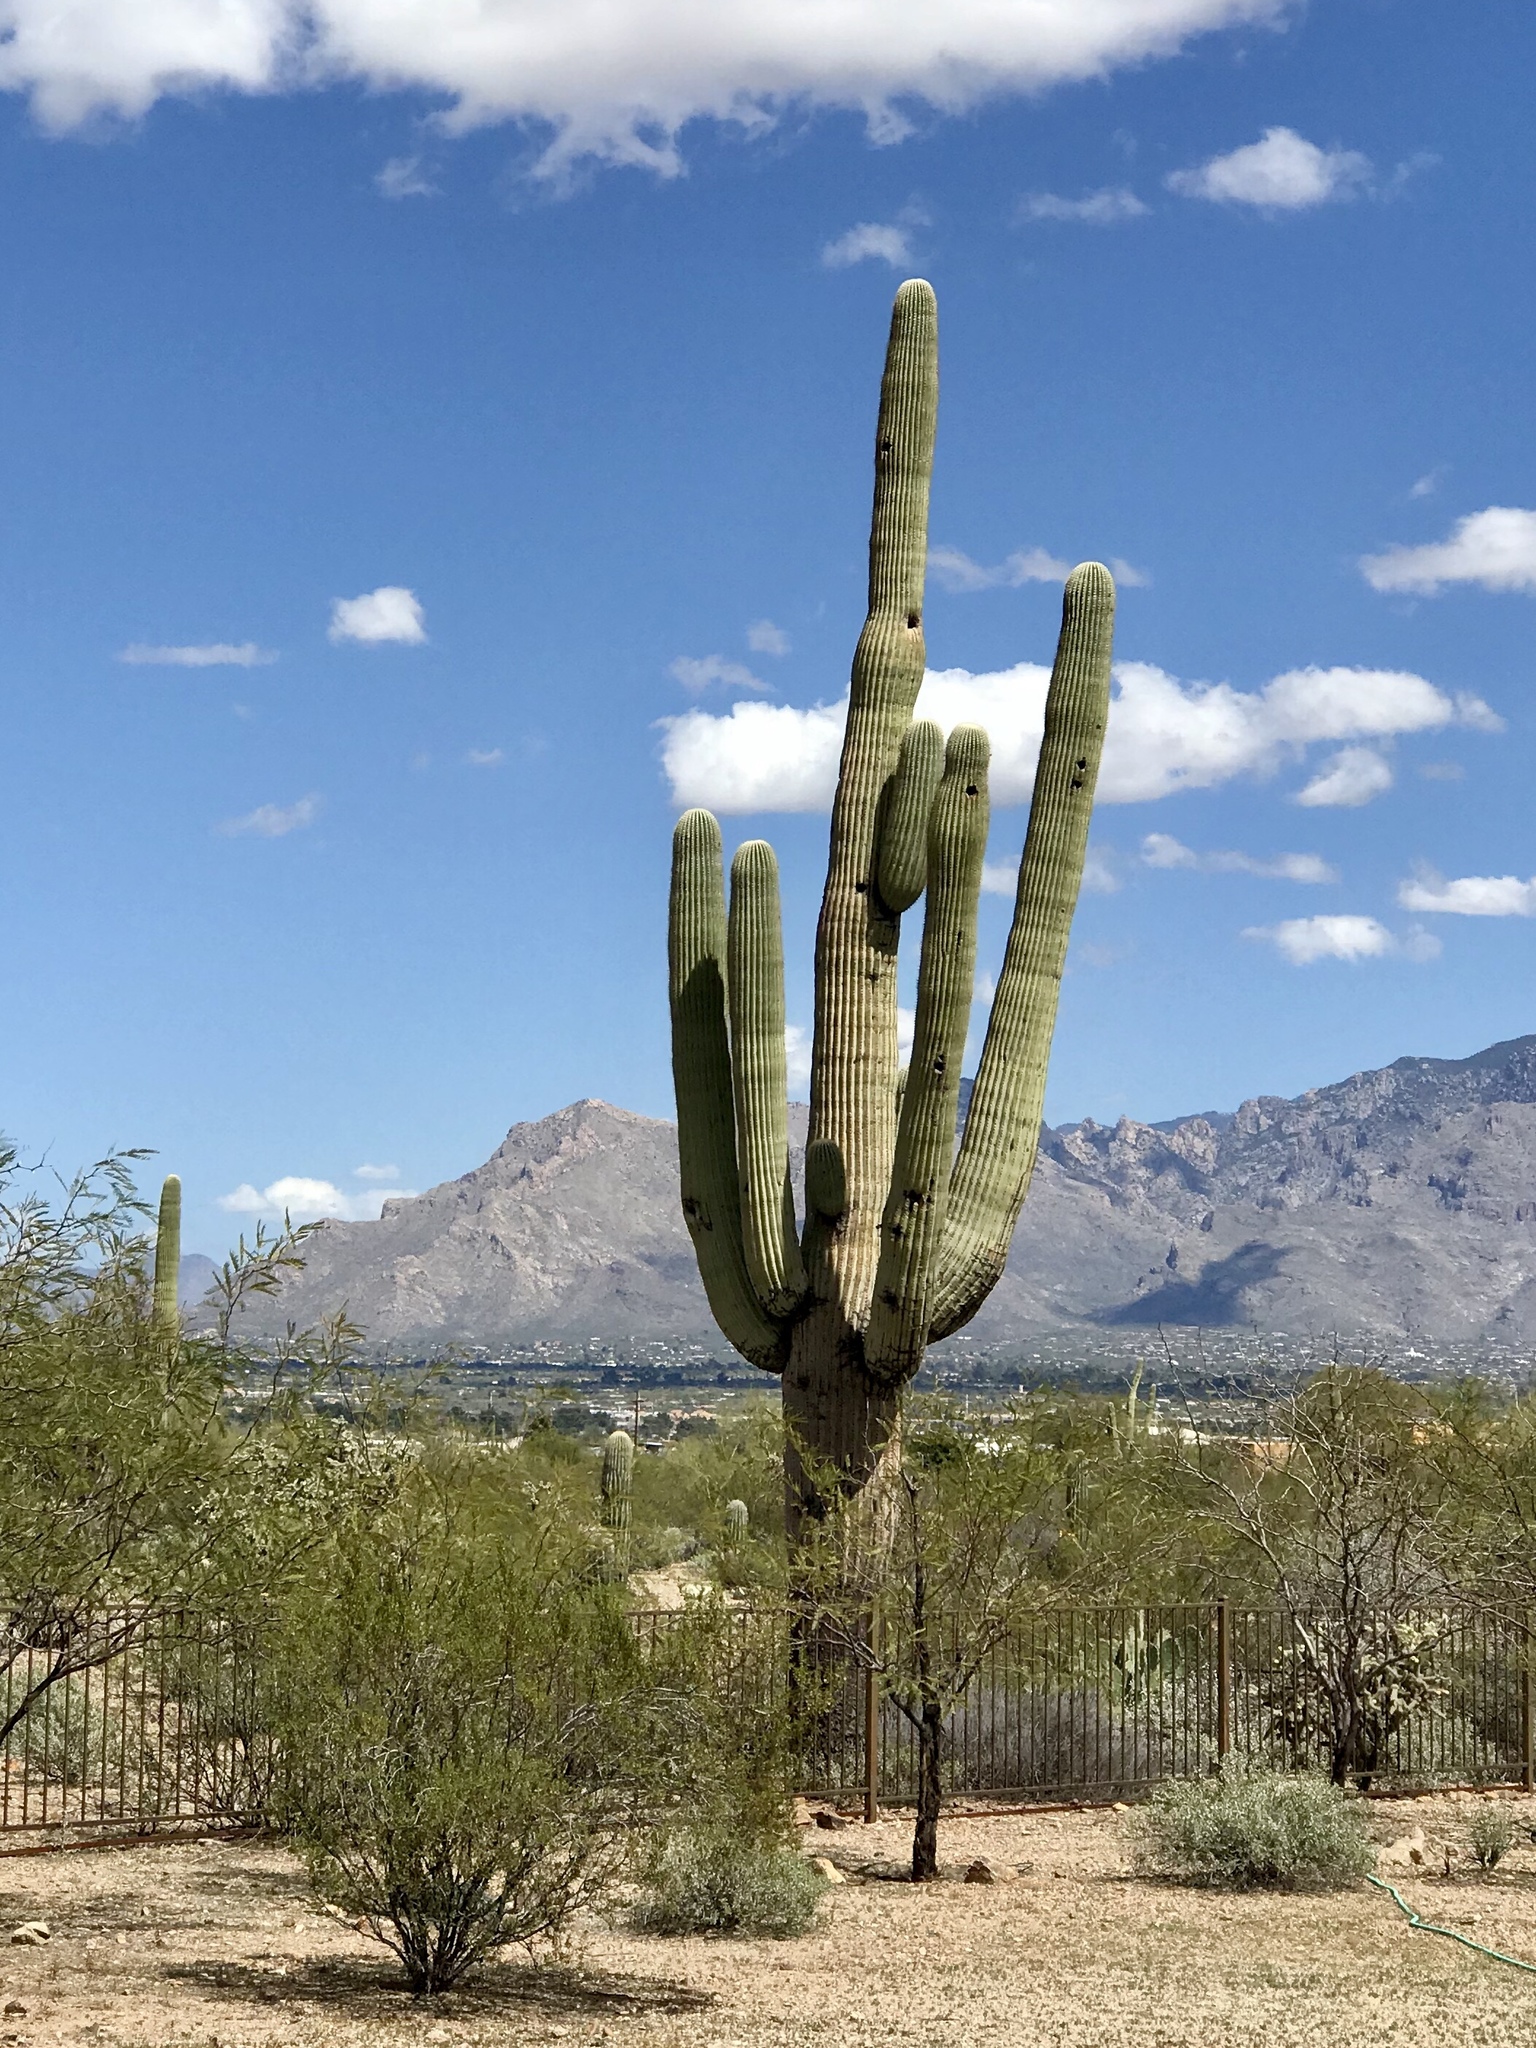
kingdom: Plantae
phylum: Tracheophyta
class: Magnoliopsida
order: Caryophyllales
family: Cactaceae
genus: Carnegiea
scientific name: Carnegiea gigantea
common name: Saguaro
